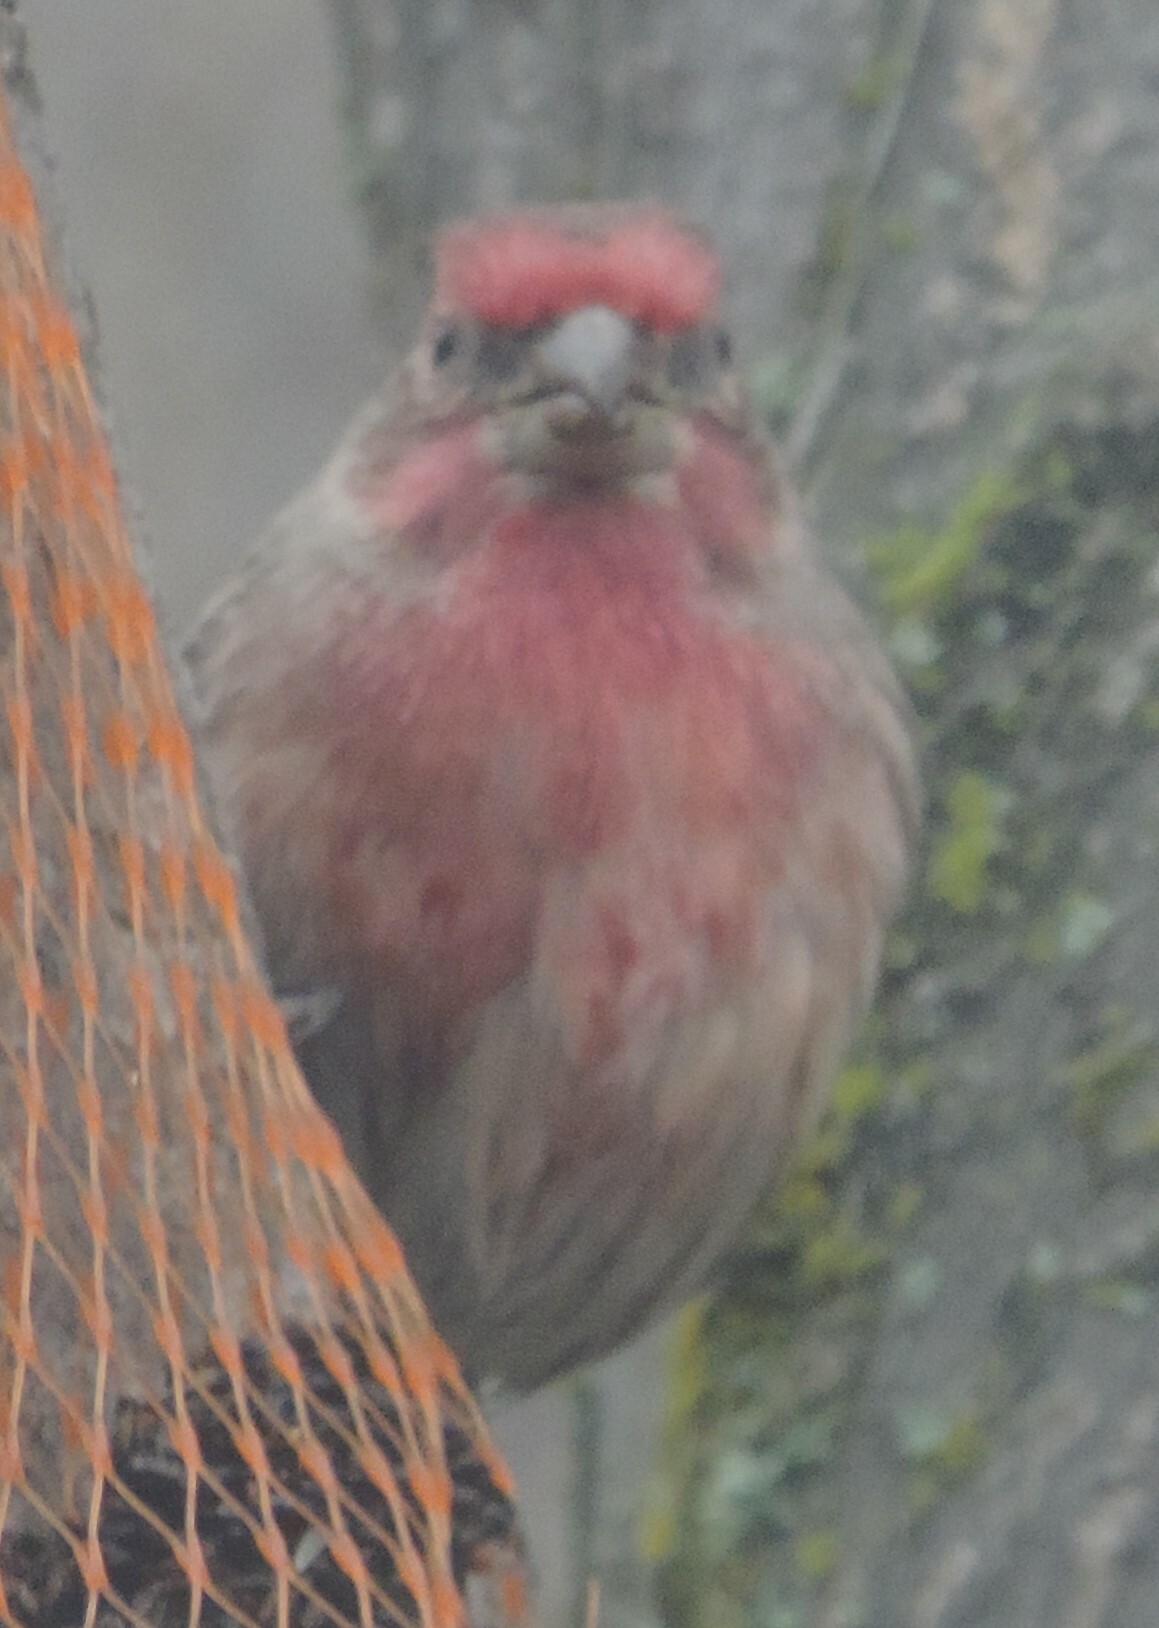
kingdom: Animalia
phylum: Chordata
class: Aves
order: Passeriformes
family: Fringillidae
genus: Haemorhous
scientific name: Haemorhous mexicanus
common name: House finch
